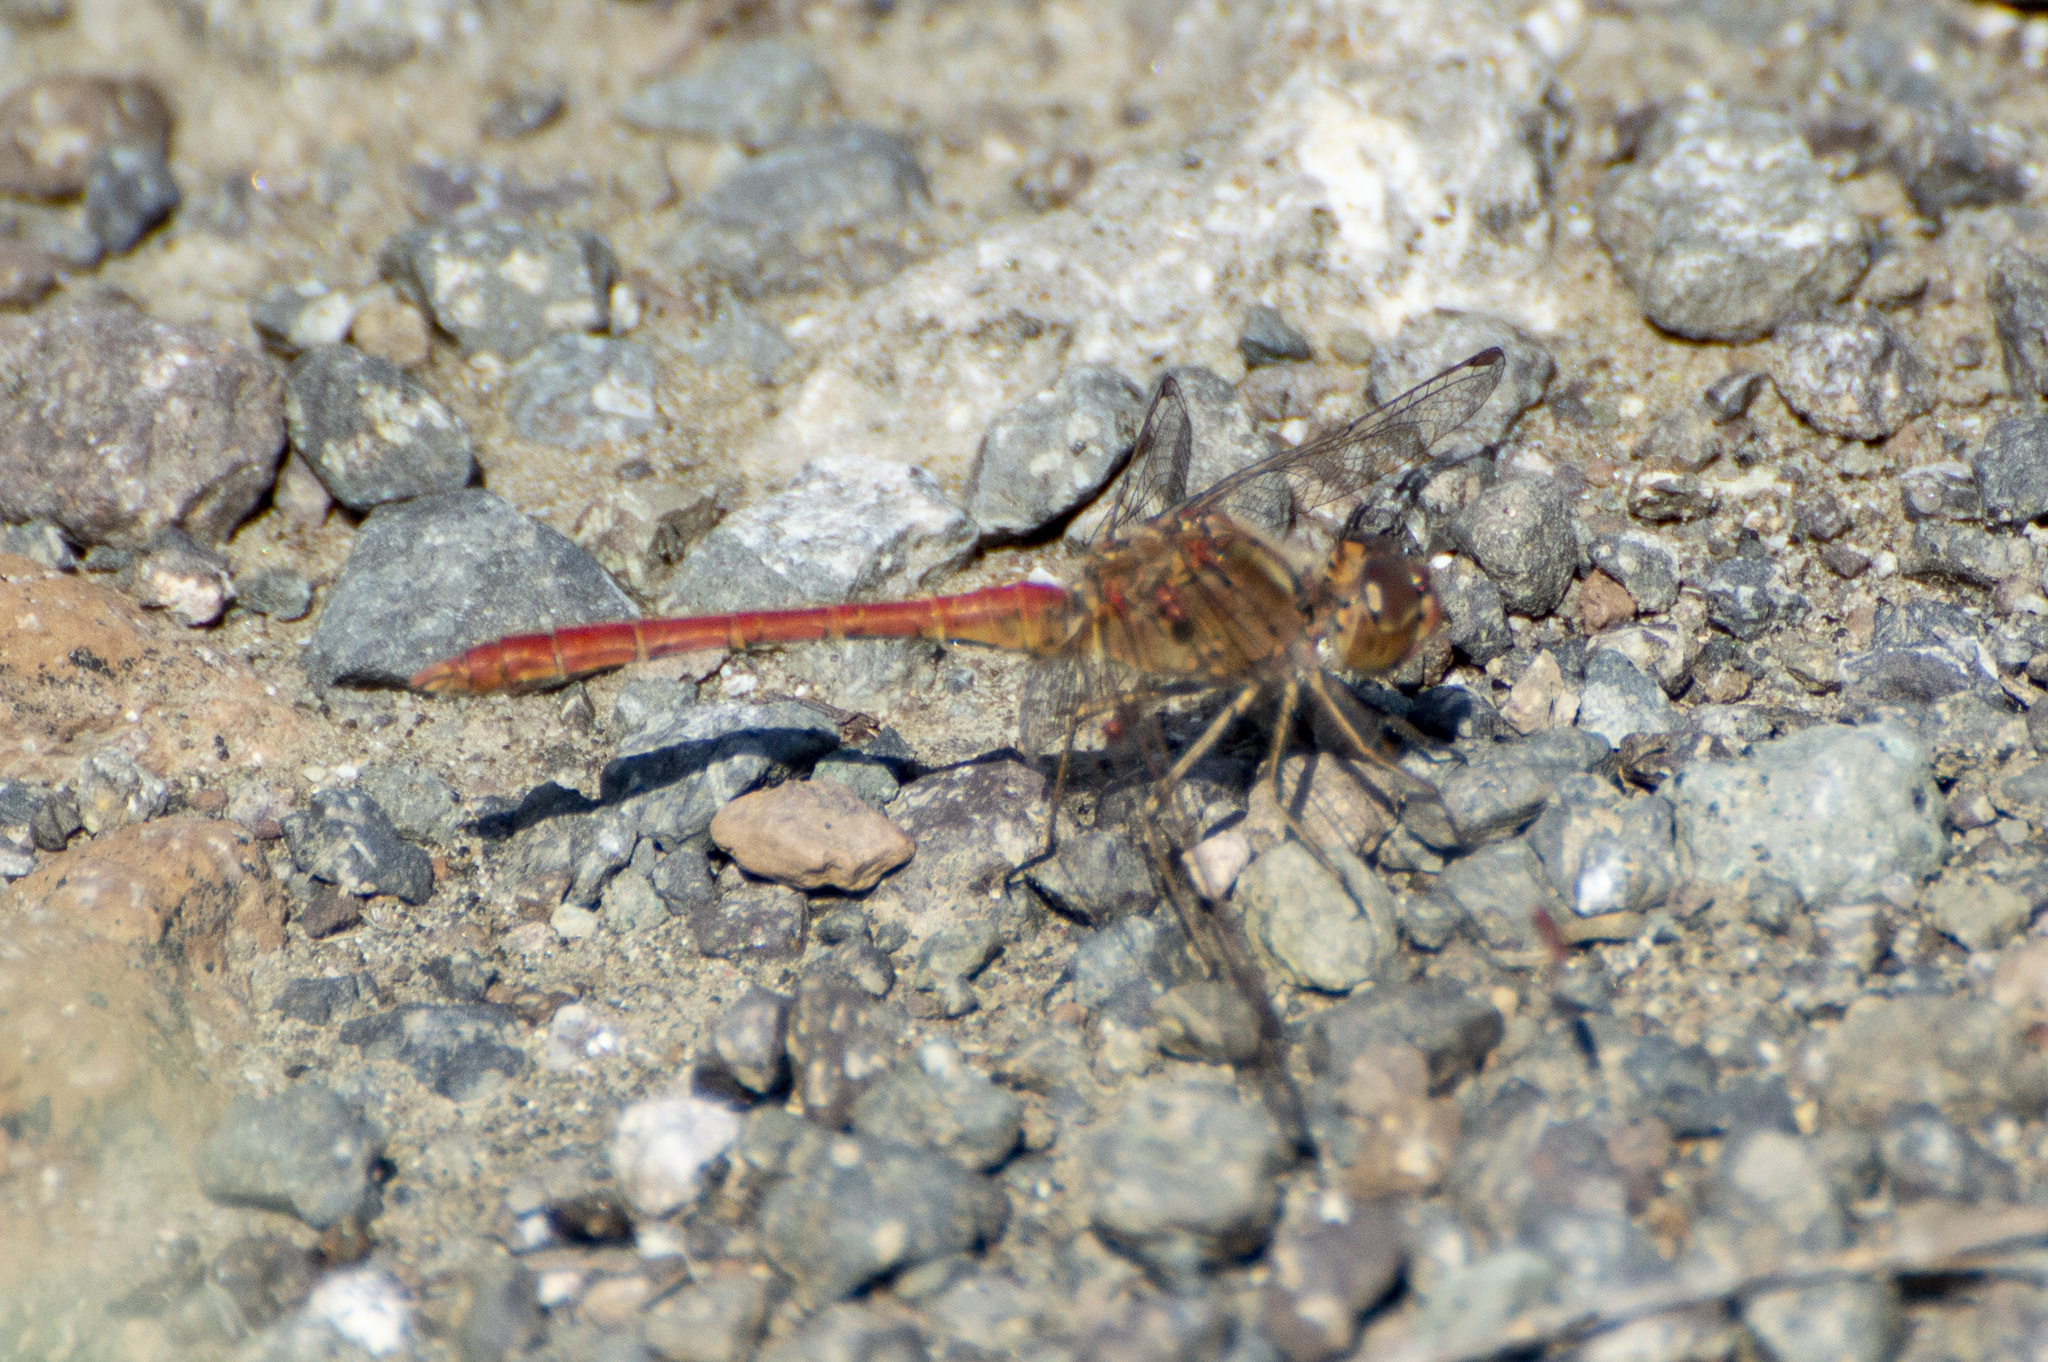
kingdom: Animalia
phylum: Arthropoda
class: Insecta
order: Odonata
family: Libellulidae
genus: Sympetrum
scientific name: Sympetrum meridionale
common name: Southern darter
